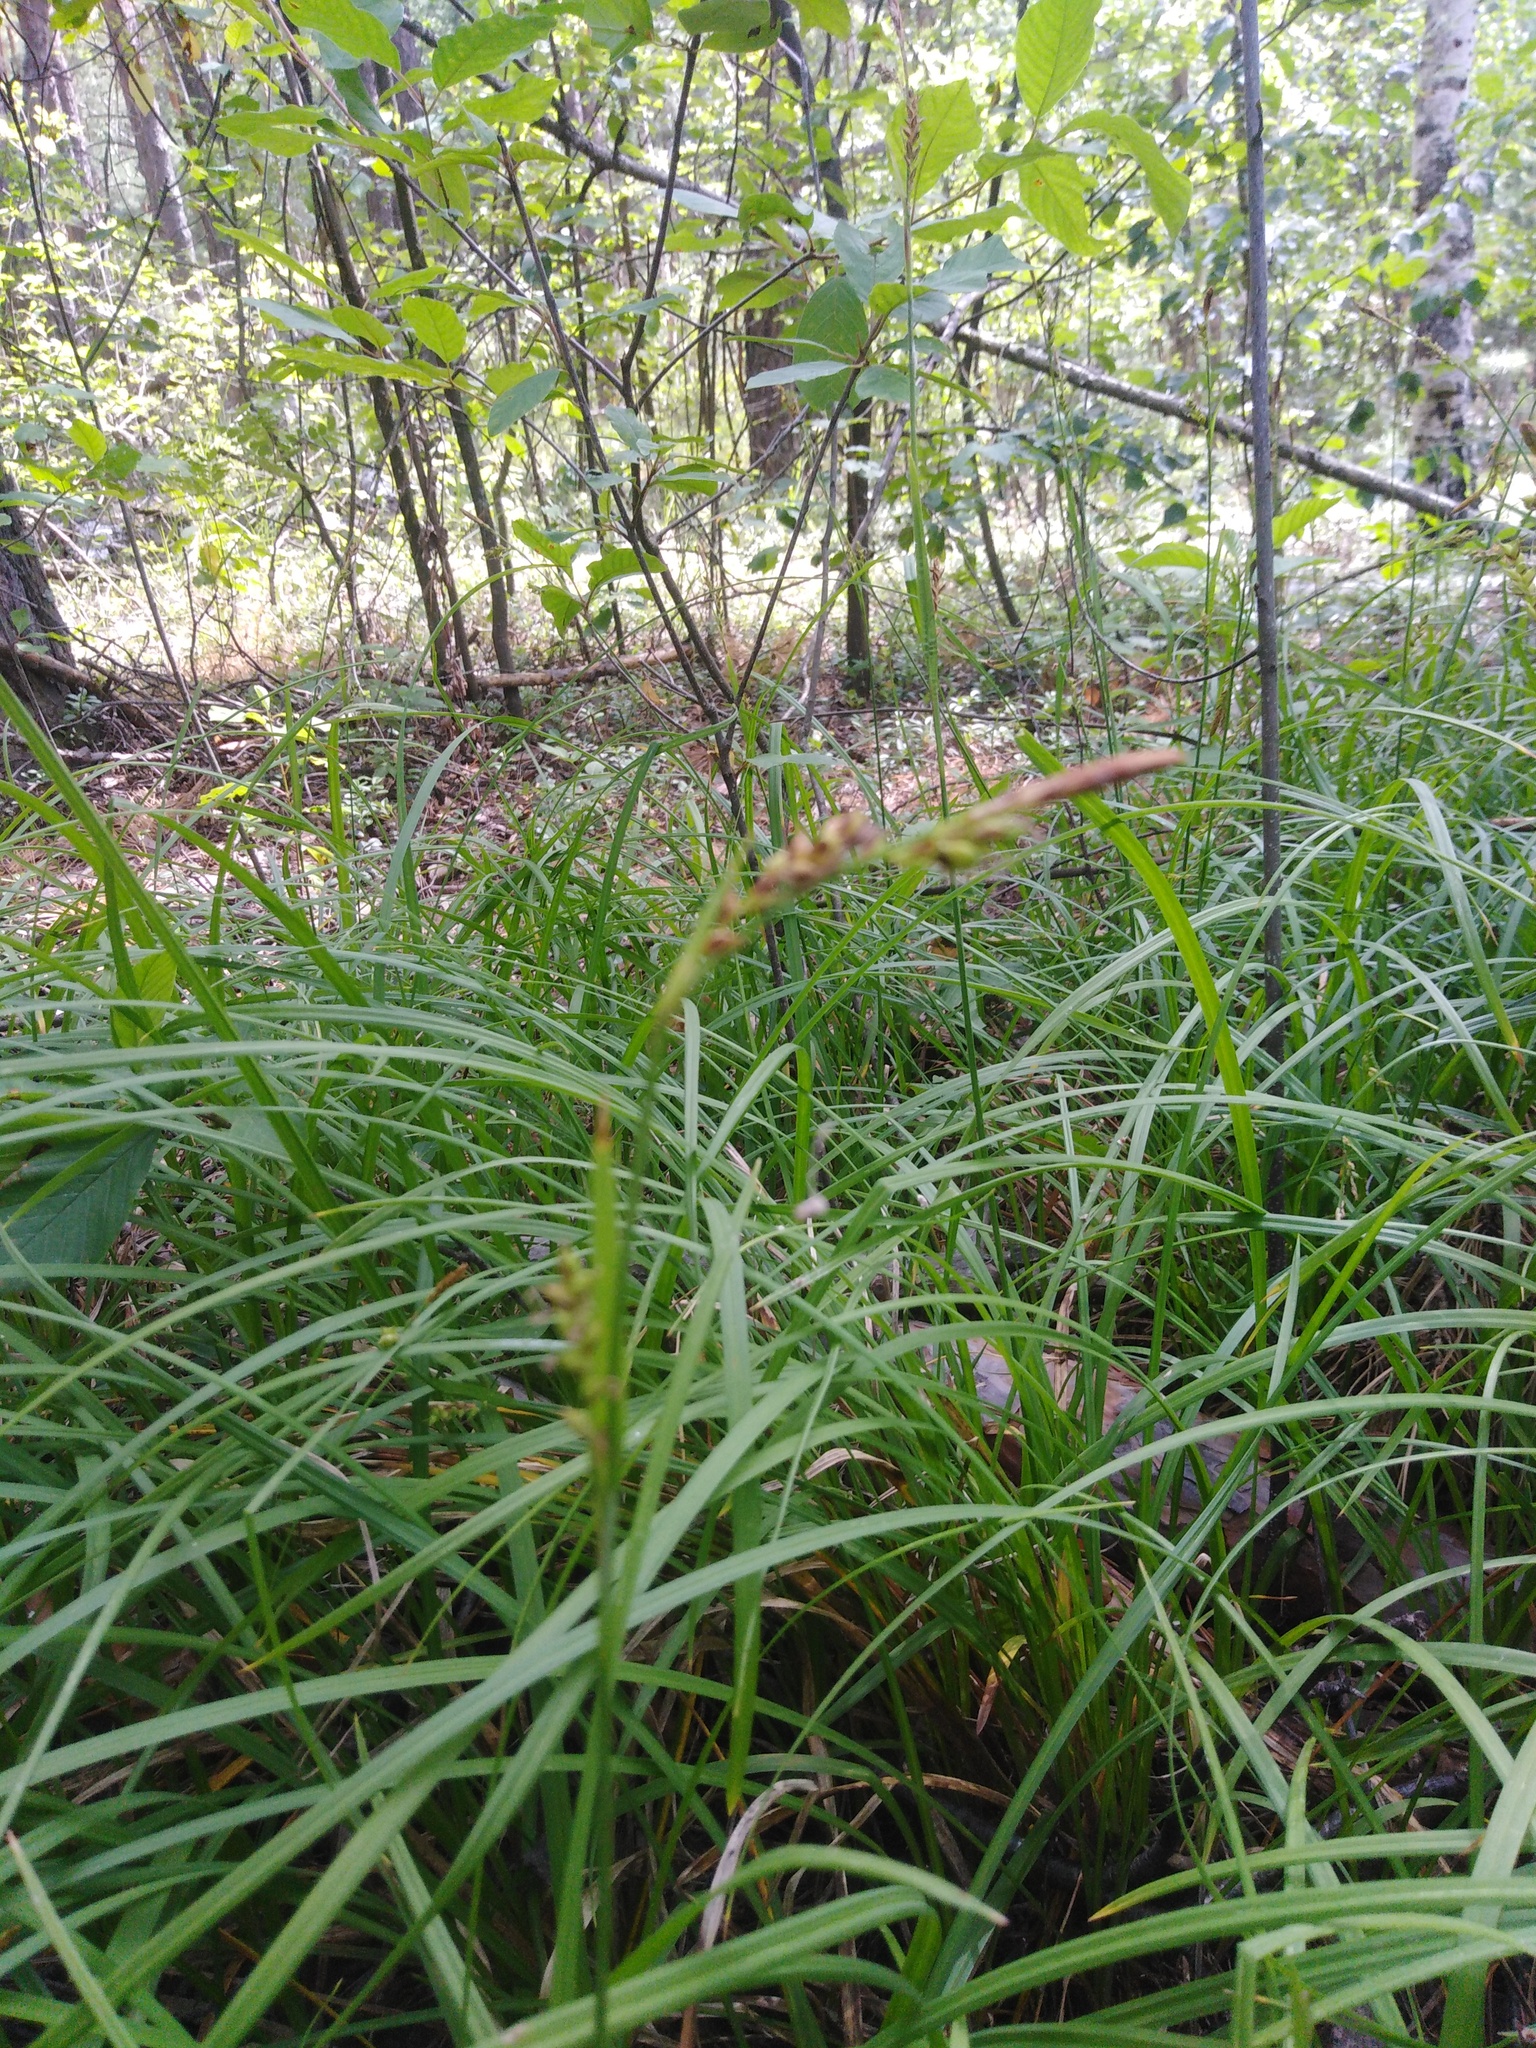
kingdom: Plantae
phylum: Tracheophyta
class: Liliopsida
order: Poales
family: Cyperaceae
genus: Carex
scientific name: Carex vaginata
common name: Sheathed sedge
